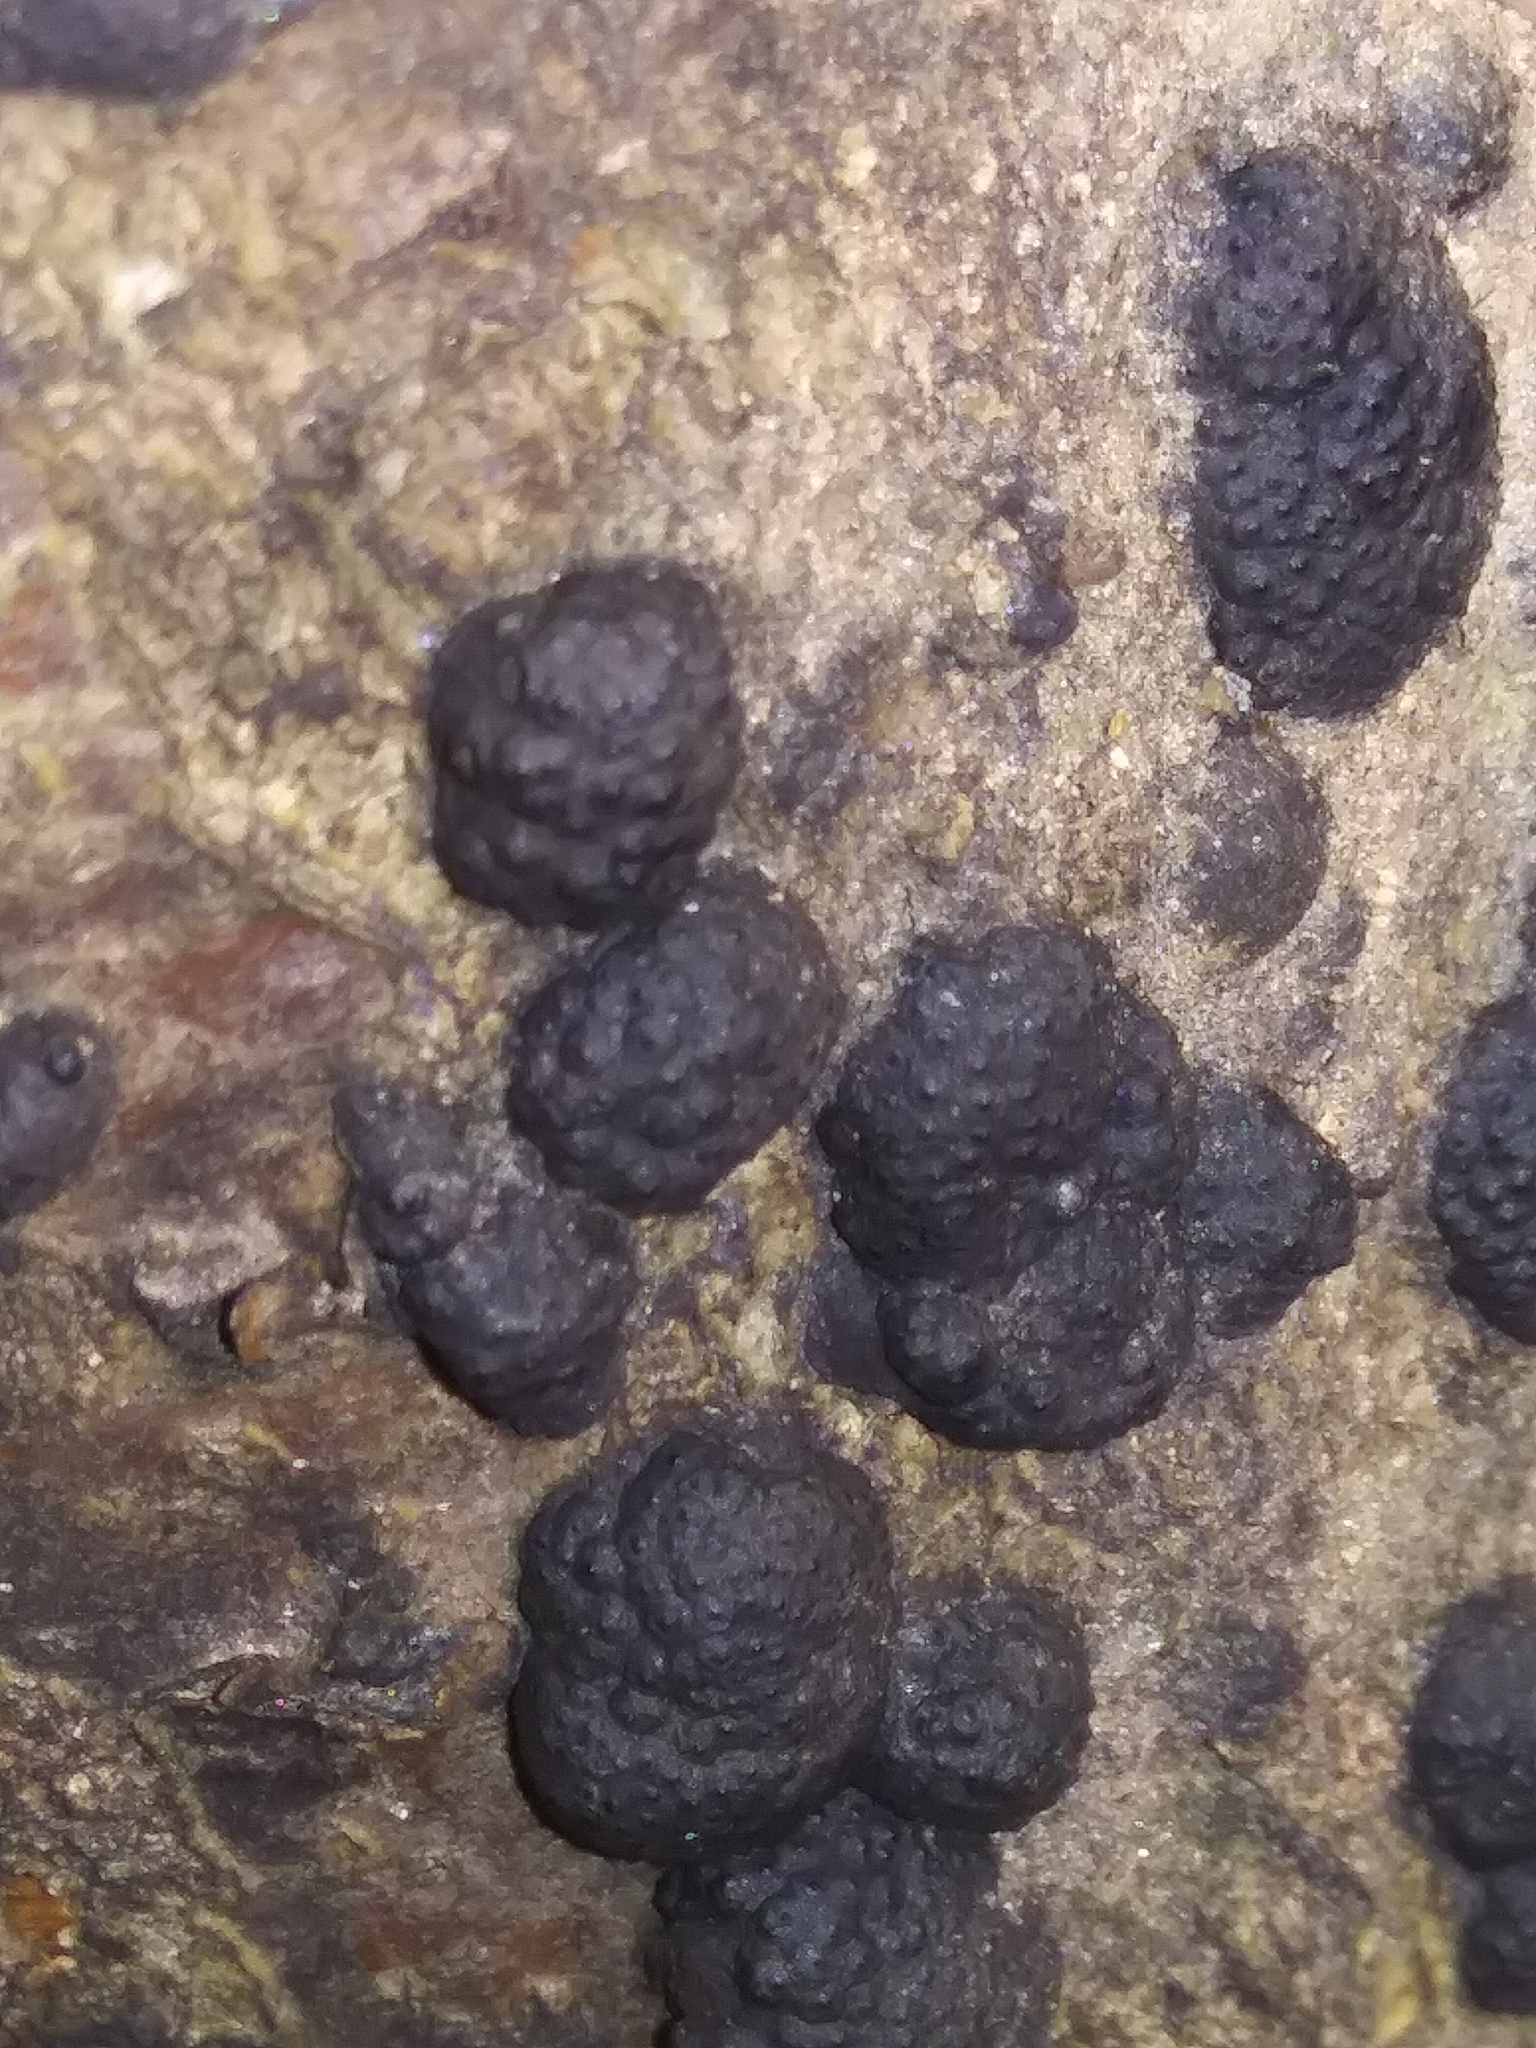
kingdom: Fungi
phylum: Ascomycota
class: Sordariomycetes
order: Xylariales
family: Hypoxylaceae
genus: Annulohypoxylon
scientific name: Annulohypoxylon thouarsianum
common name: Cramp balls
